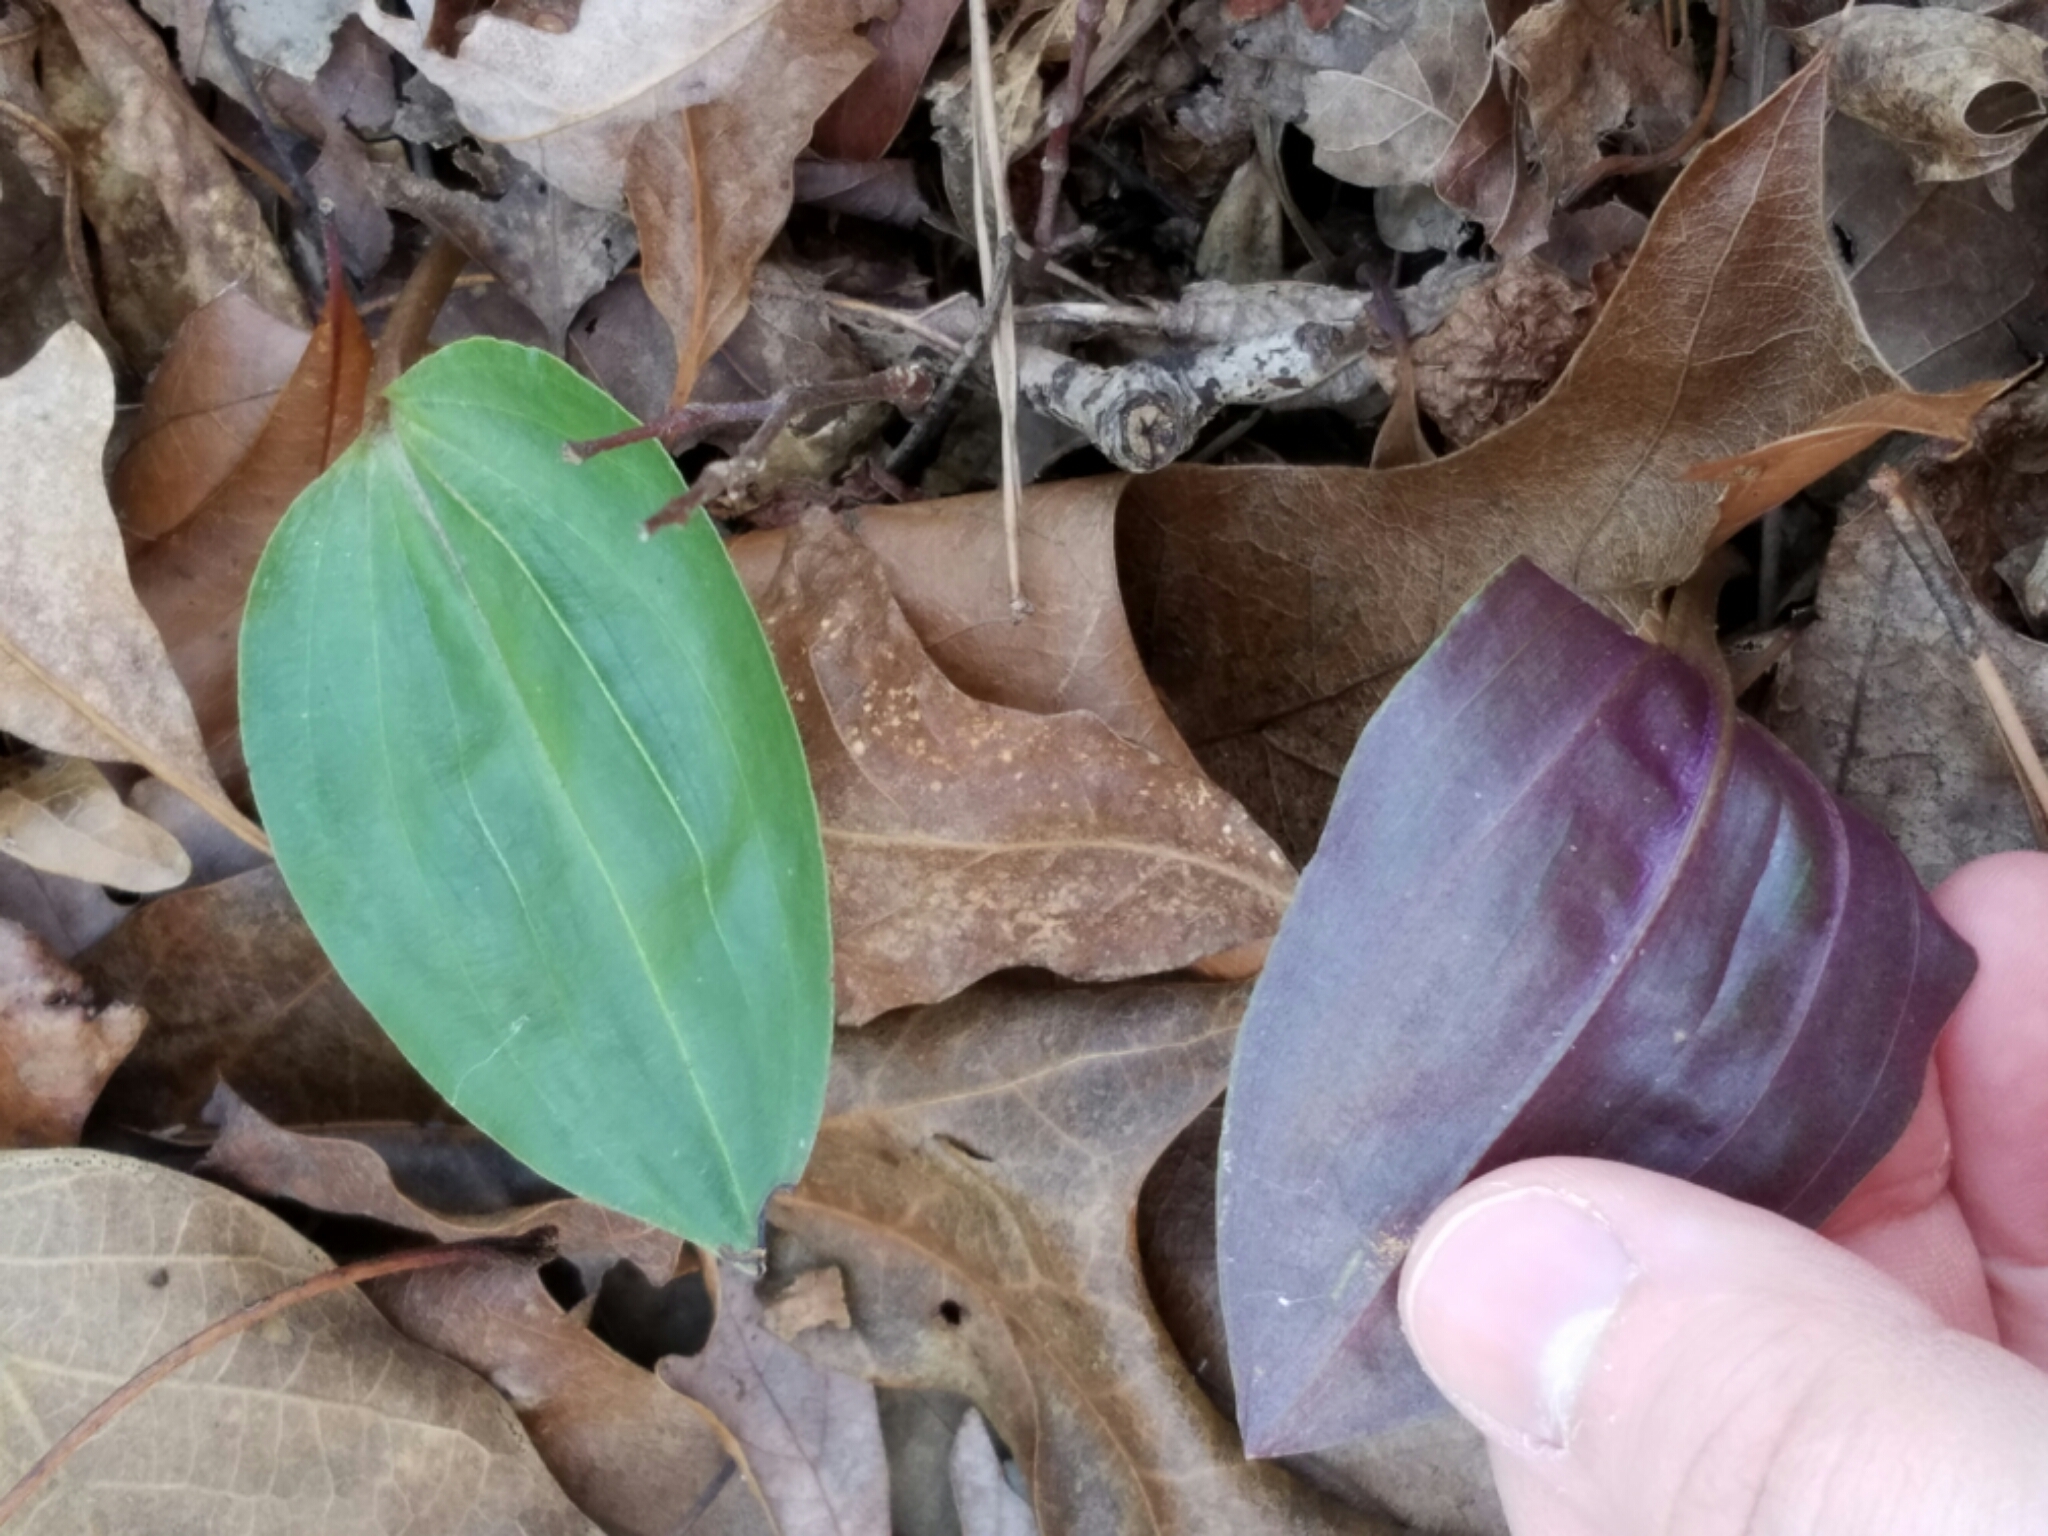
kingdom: Plantae
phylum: Tracheophyta
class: Liliopsida
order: Asparagales
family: Orchidaceae
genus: Tipularia
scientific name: Tipularia discolor
